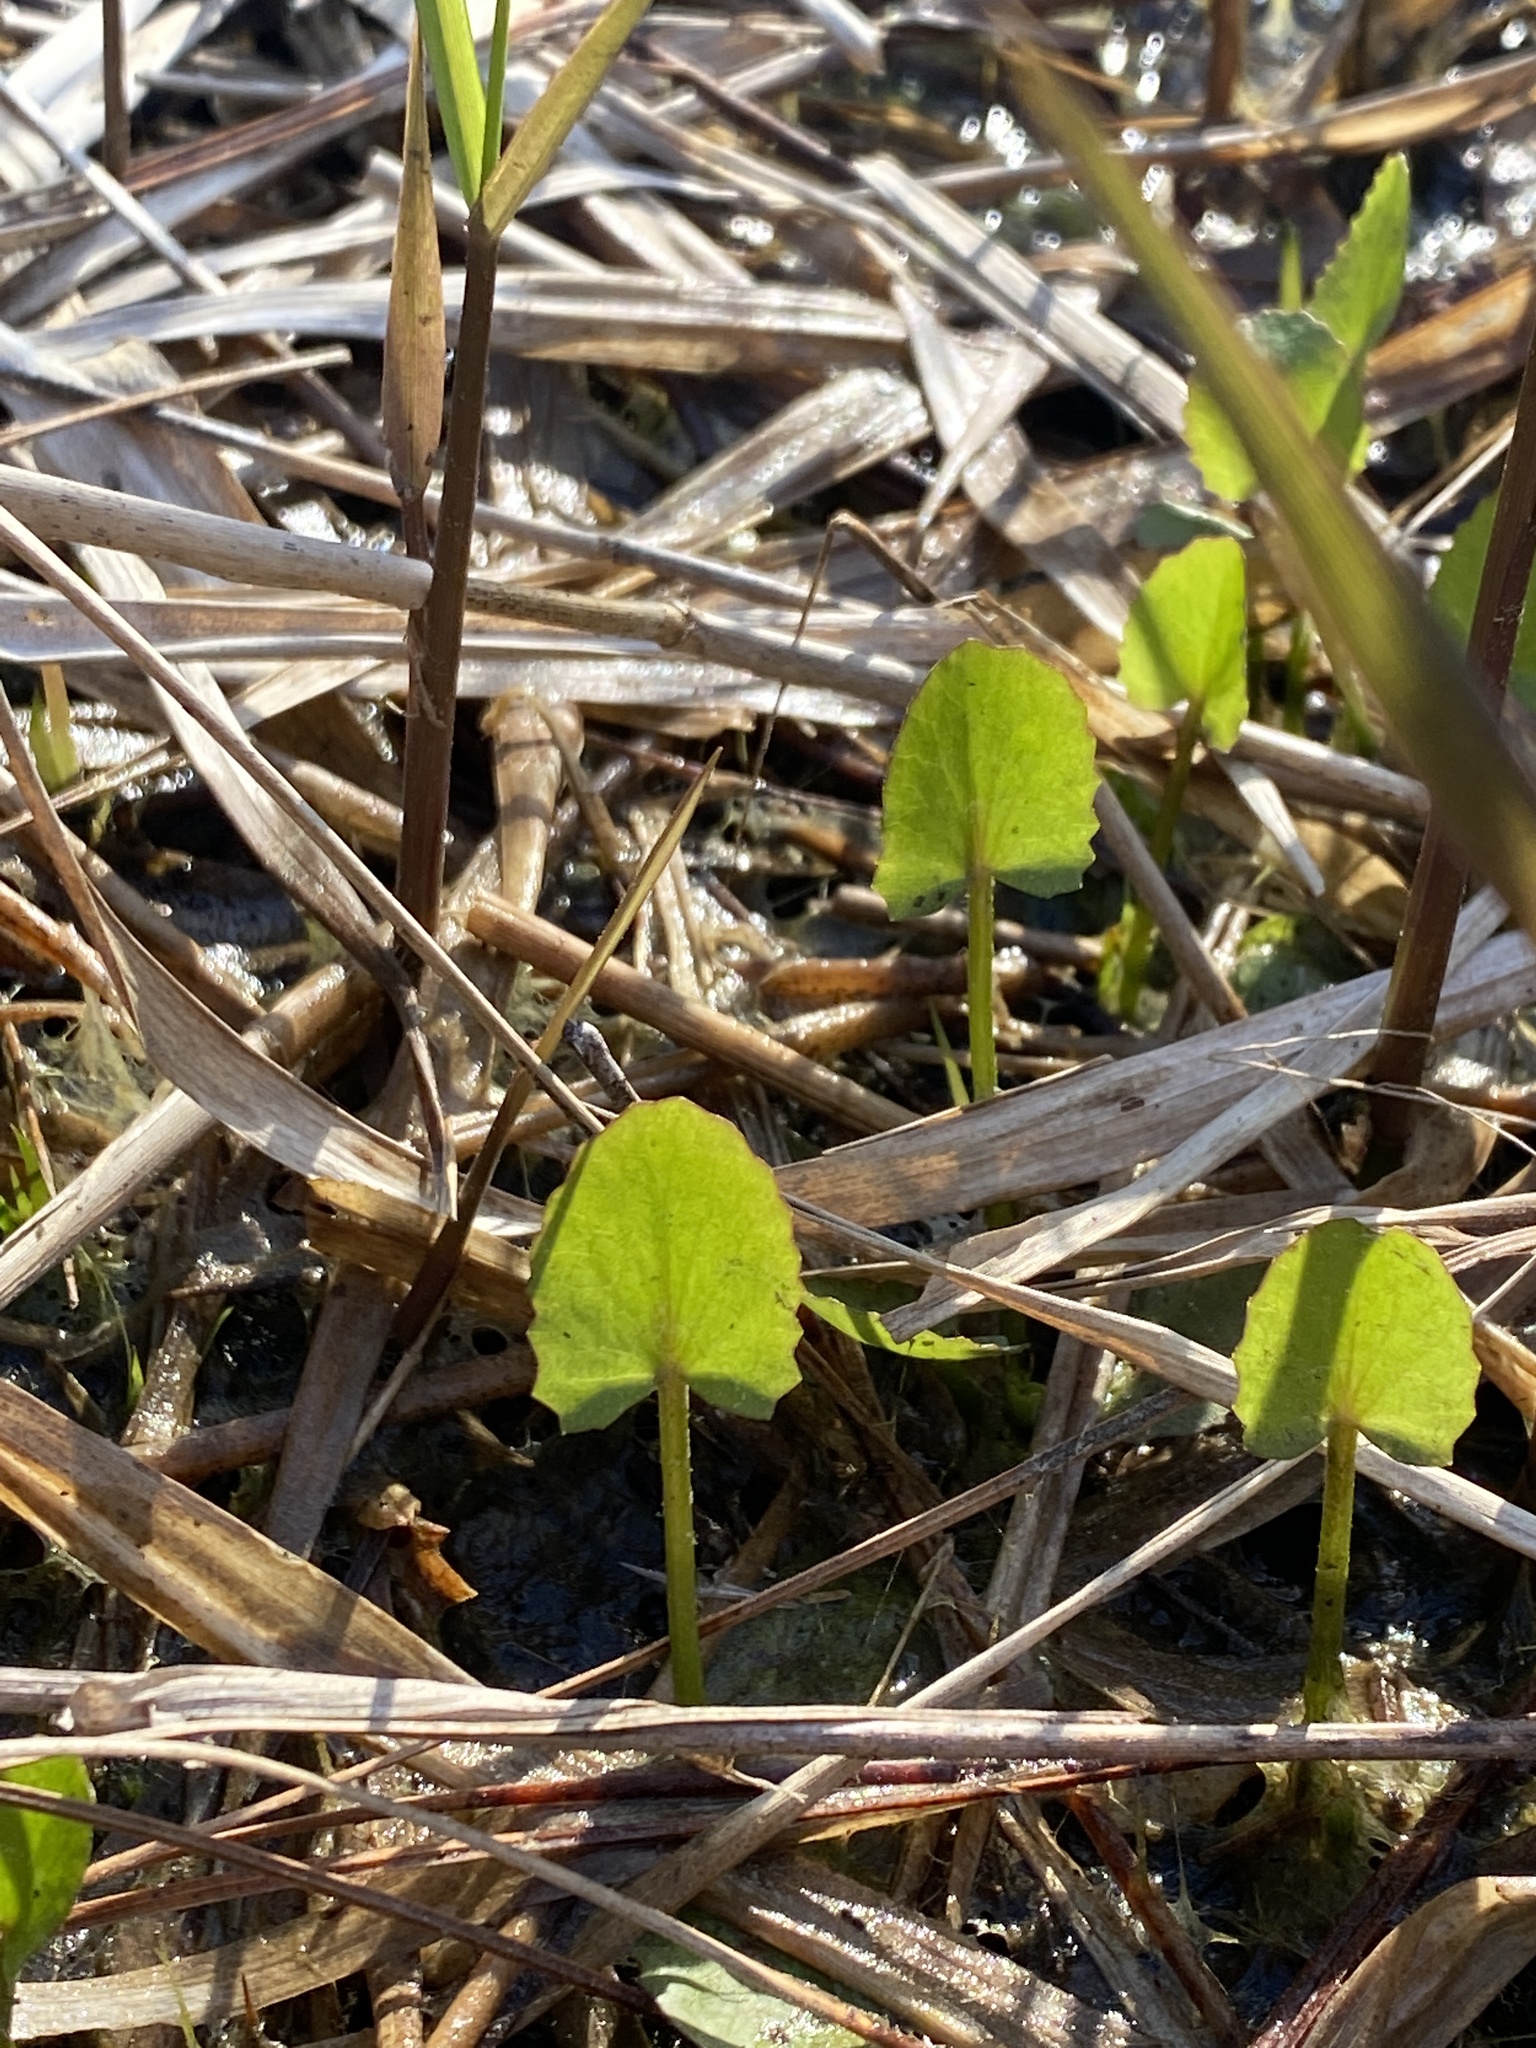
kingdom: Plantae
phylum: Tracheophyta
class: Magnoliopsida
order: Apiales
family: Apiaceae
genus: Centella
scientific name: Centella erecta
